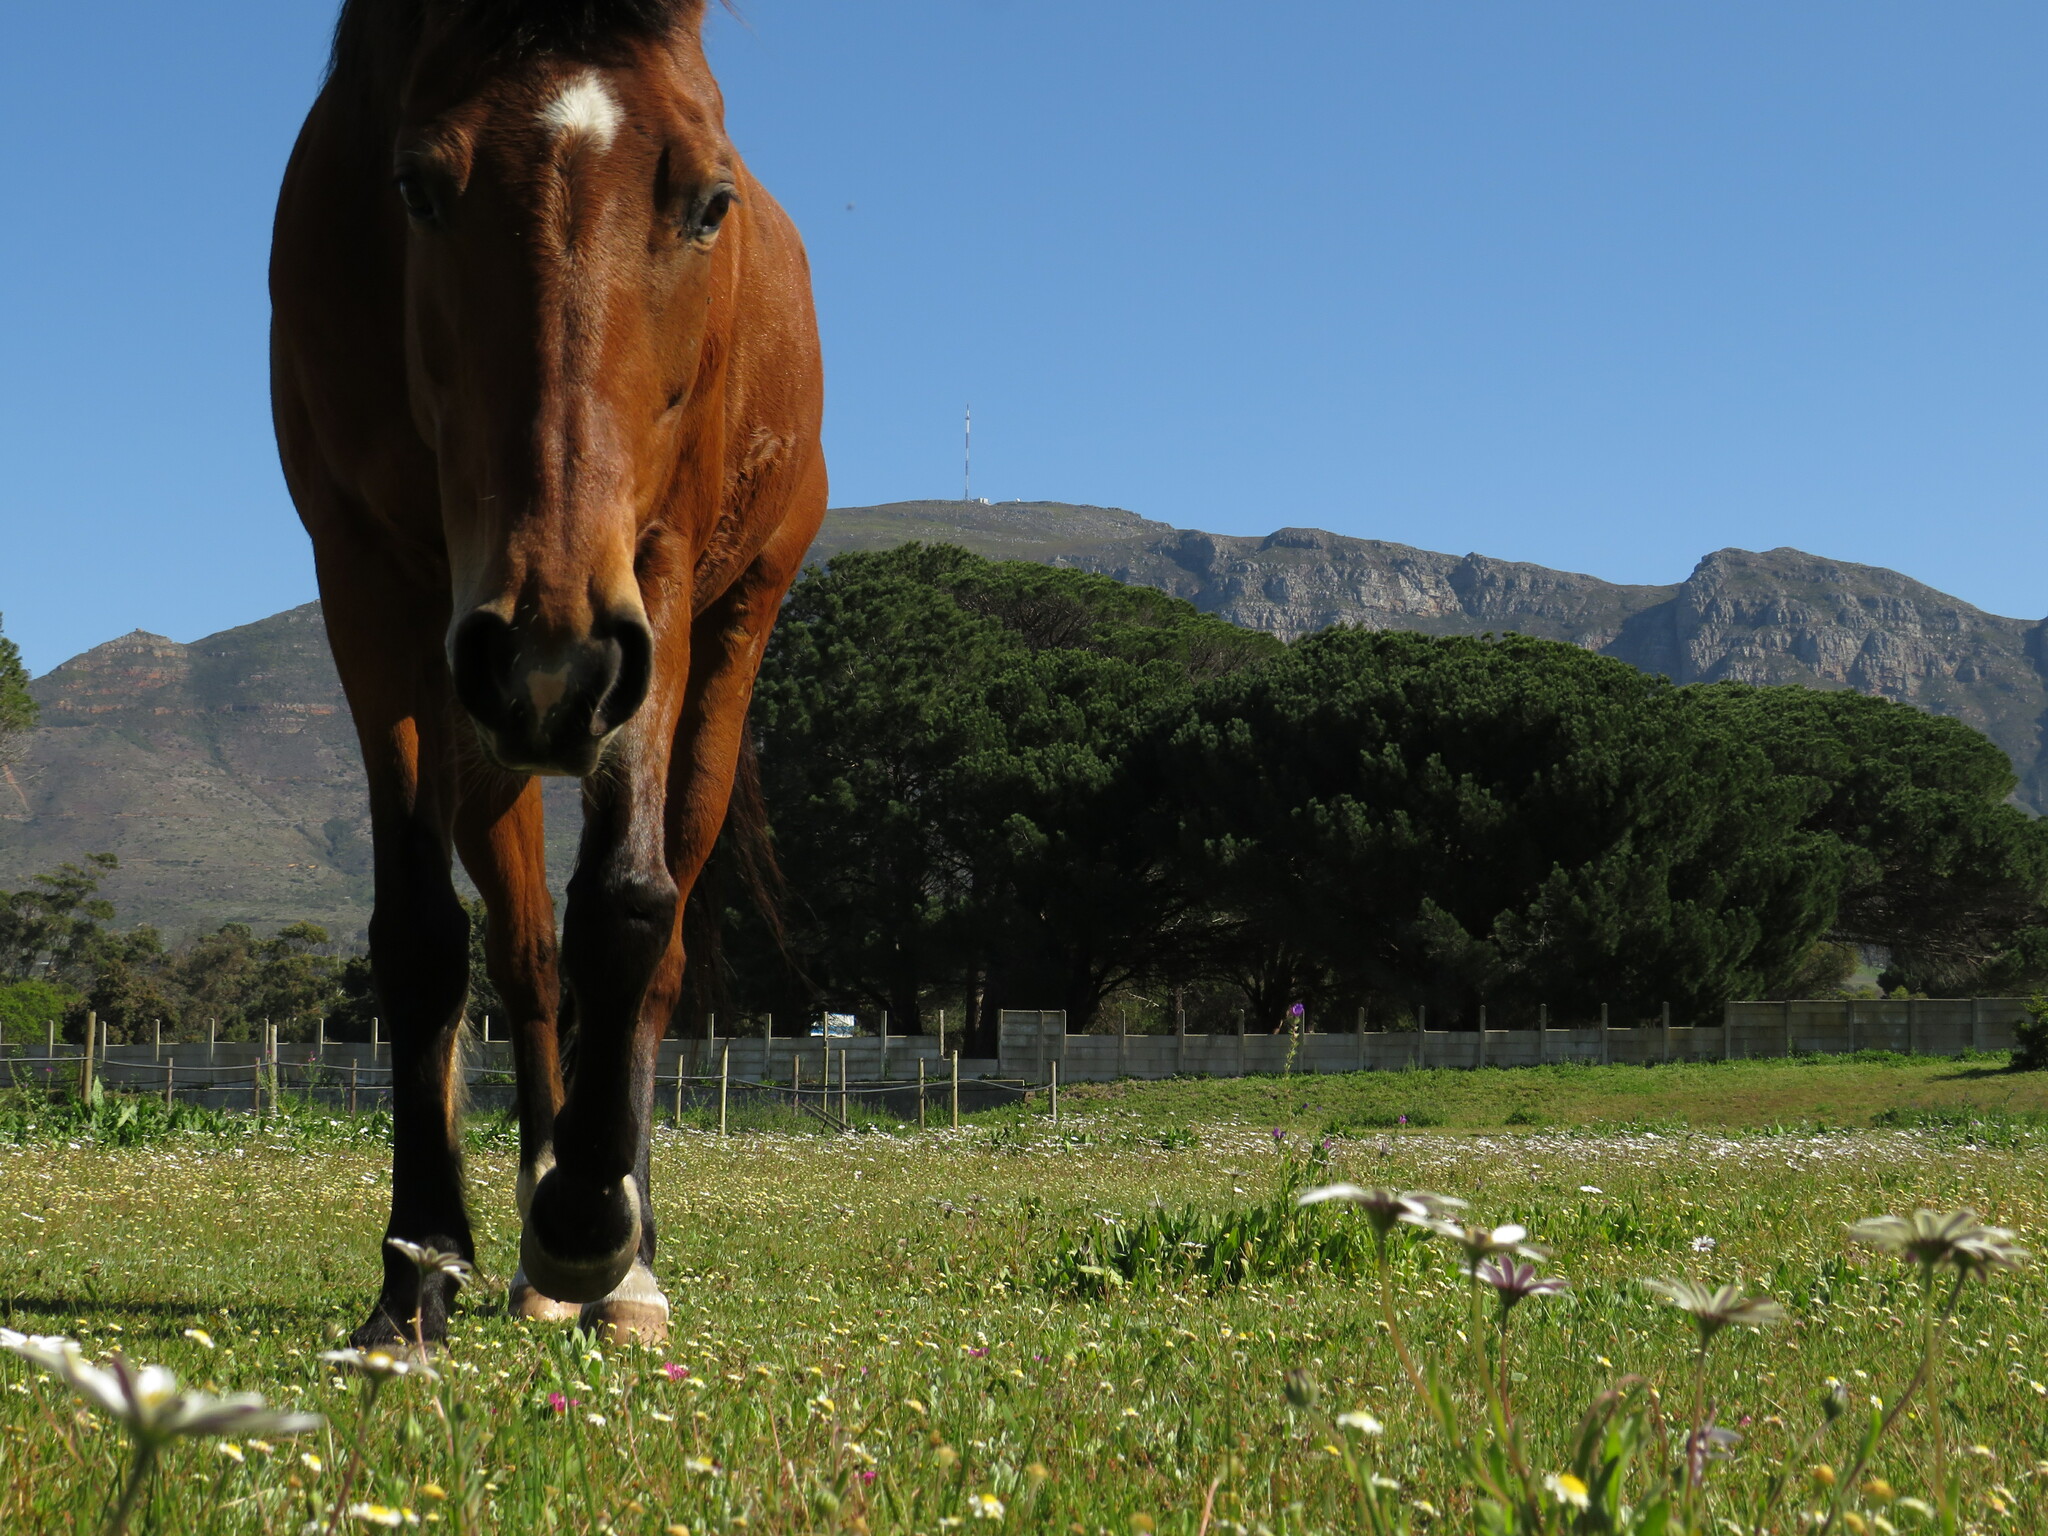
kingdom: Plantae
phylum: Tracheophyta
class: Magnoliopsida
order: Asterales
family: Asteraceae
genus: Dimorphotheca
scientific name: Dimorphotheca pluvialis
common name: Weather prophet
